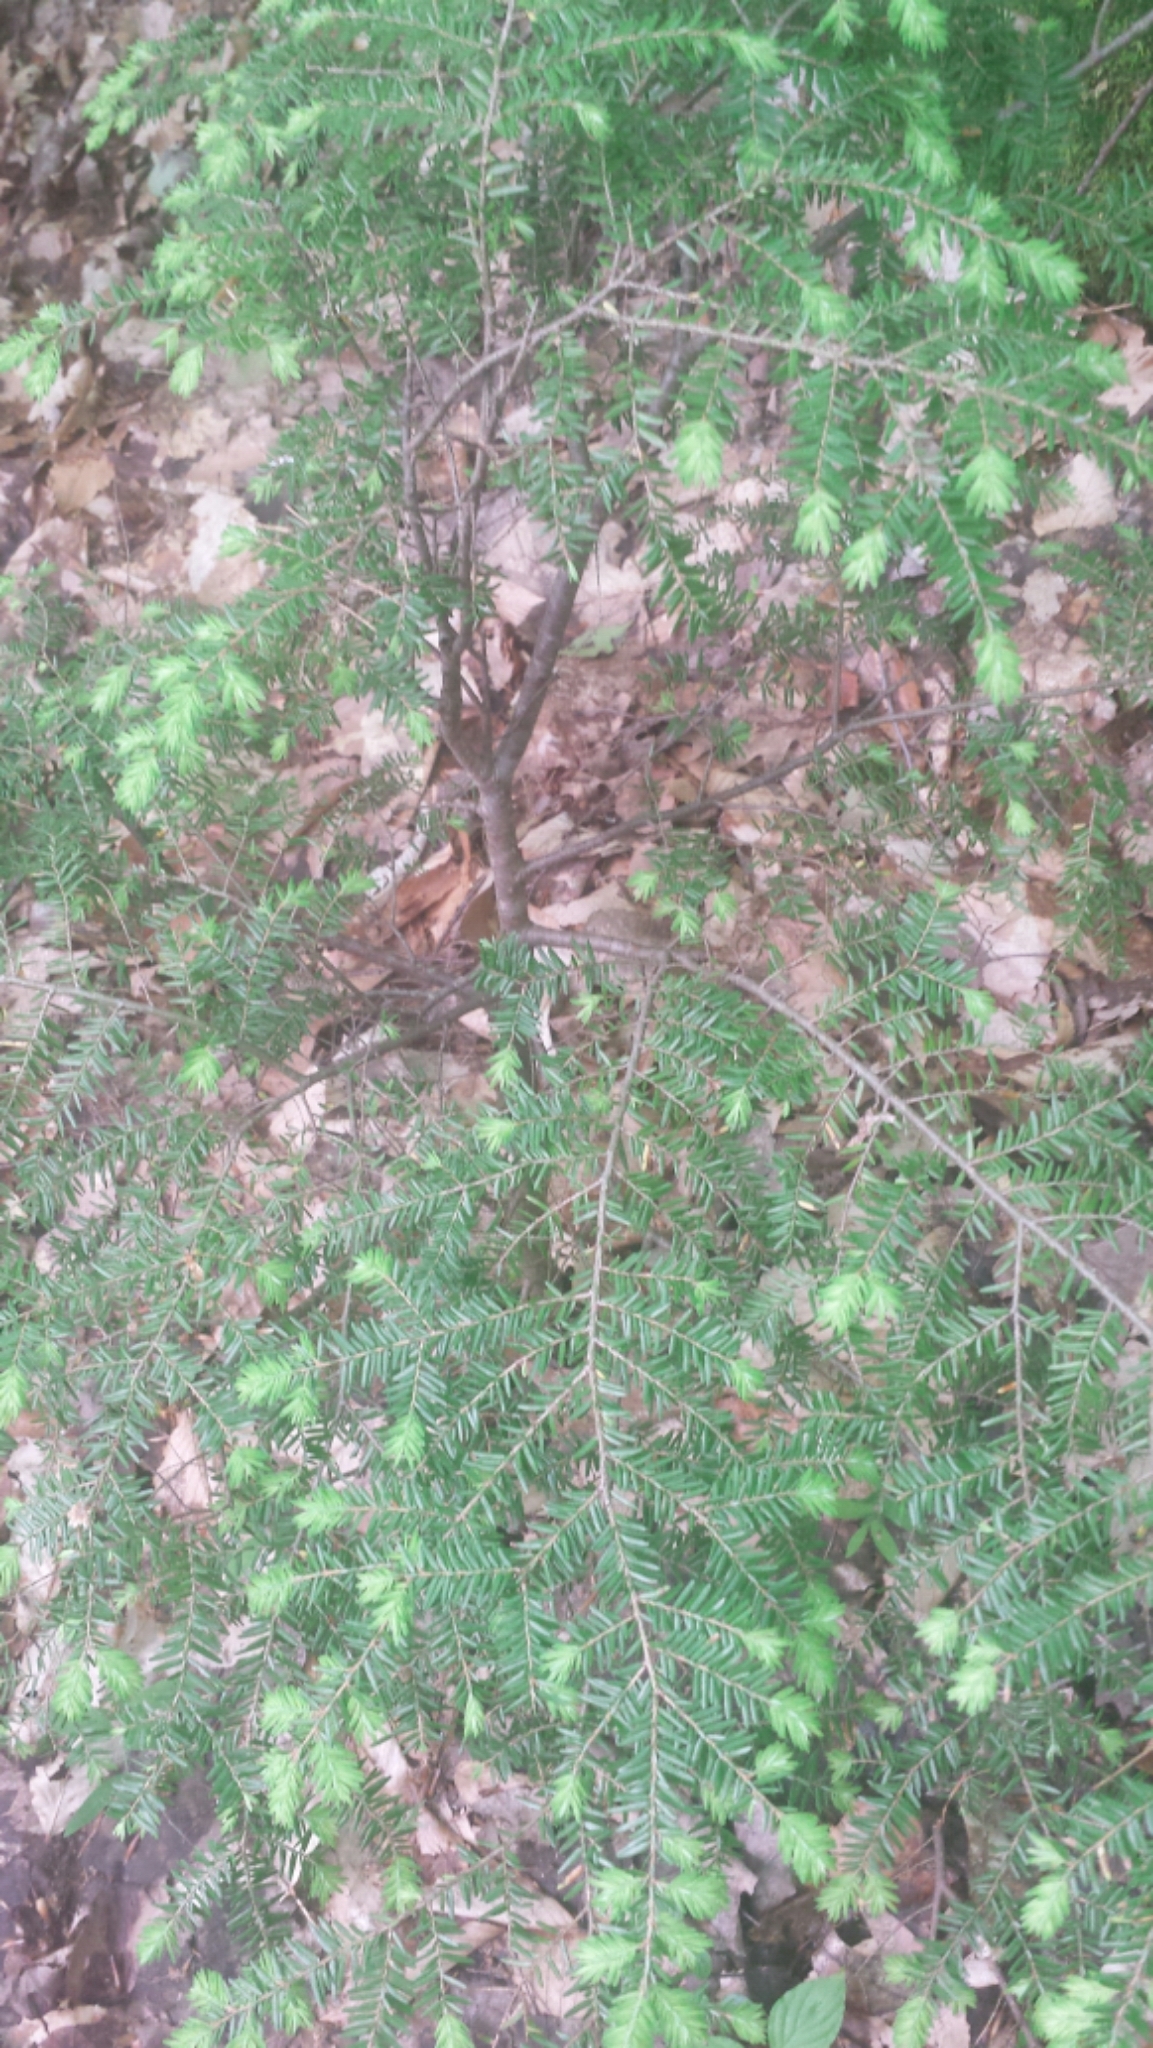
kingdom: Plantae
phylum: Tracheophyta
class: Pinopsida
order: Pinales
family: Pinaceae
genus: Tsuga
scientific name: Tsuga canadensis
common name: Eastern hemlock
